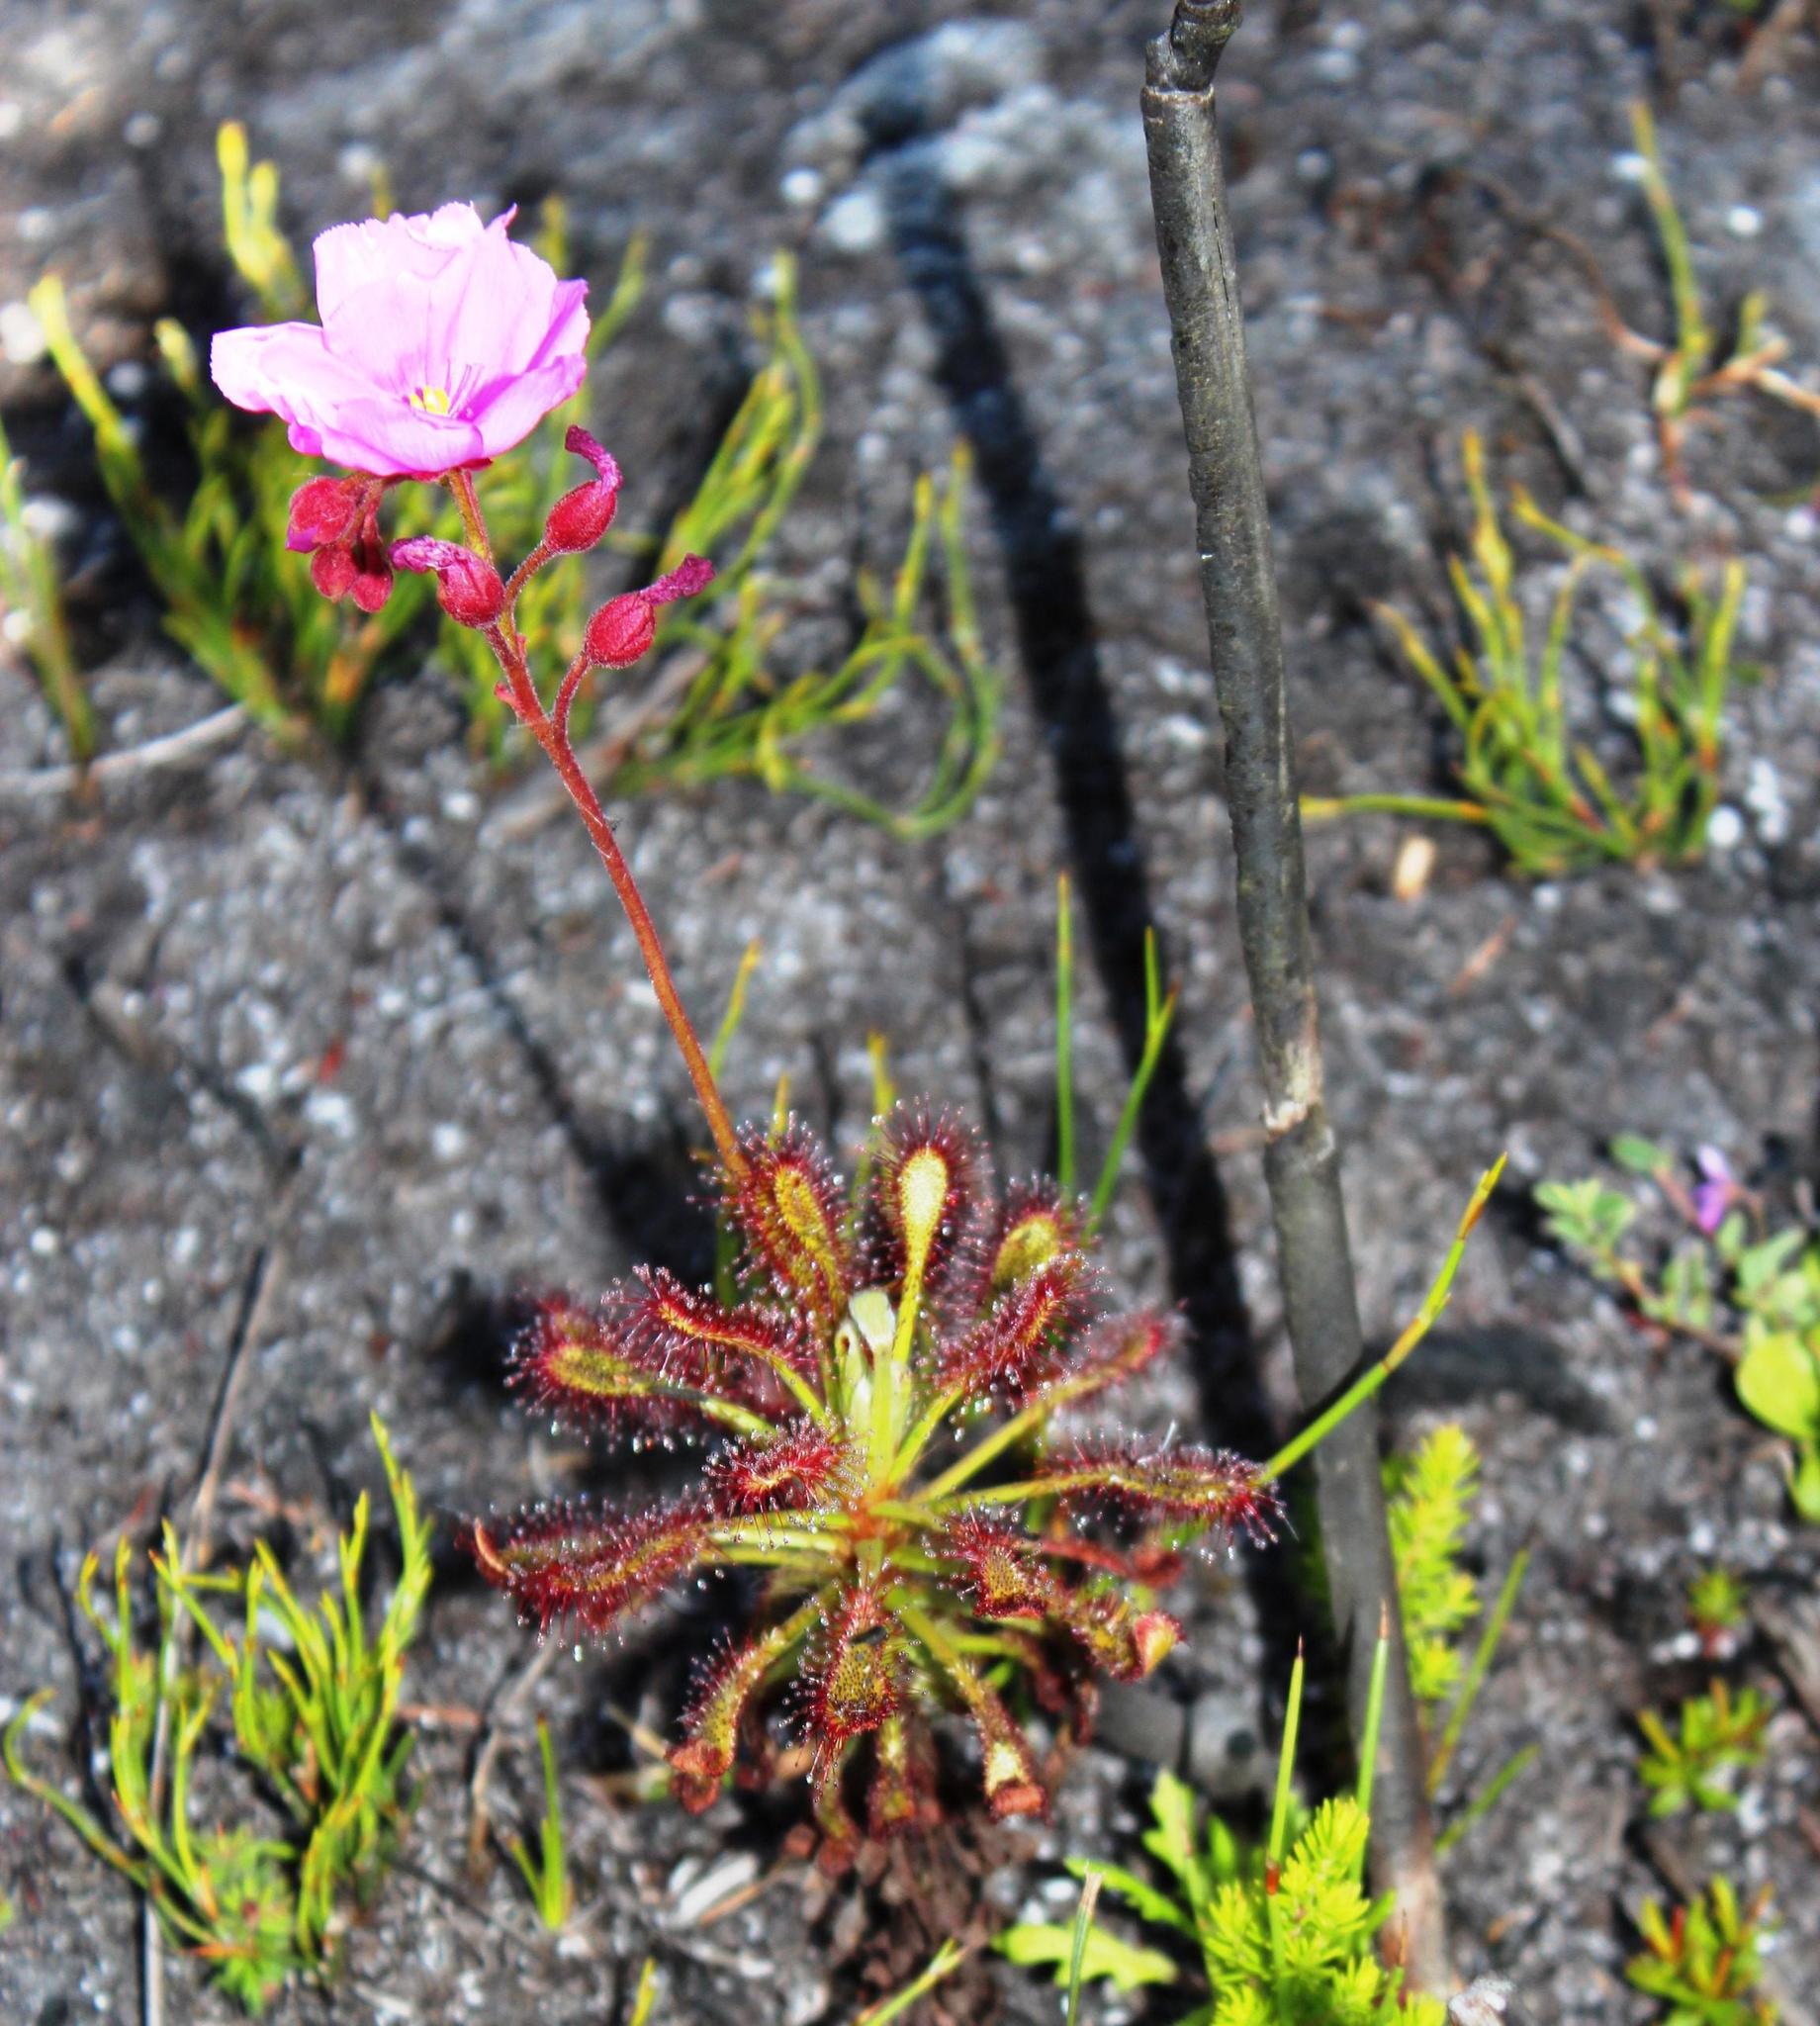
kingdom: Plantae
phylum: Tracheophyta
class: Magnoliopsida
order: Caryophyllales
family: Droseraceae
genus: Drosera
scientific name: Drosera glabripes
